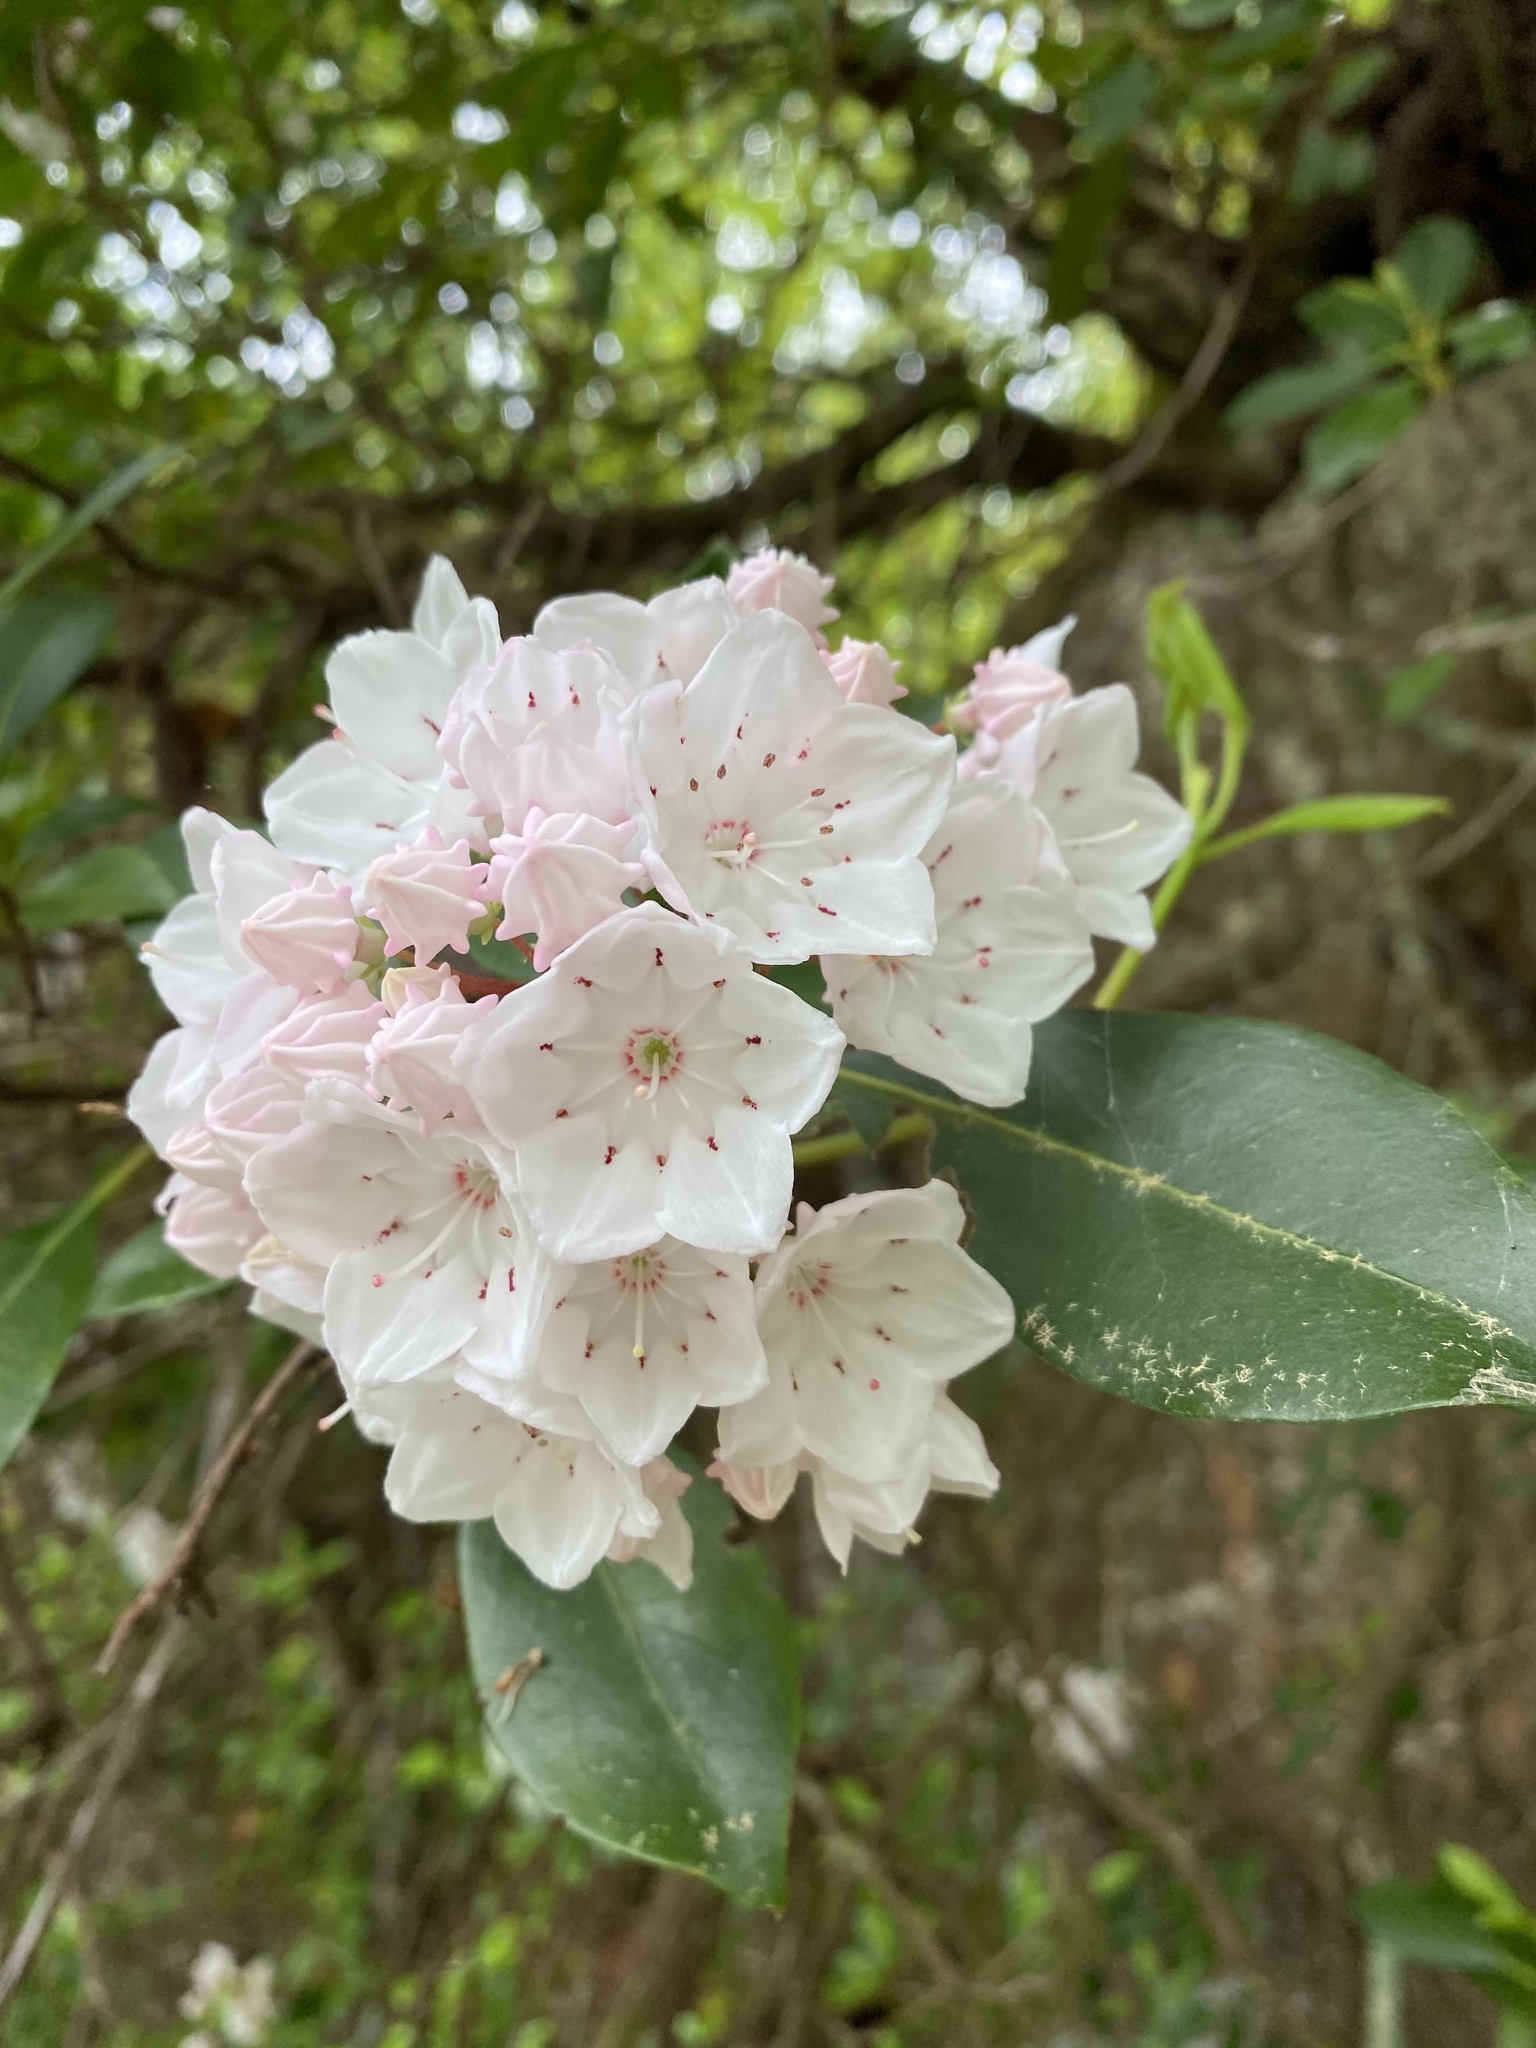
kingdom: Plantae
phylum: Tracheophyta
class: Magnoliopsida
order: Ericales
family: Ericaceae
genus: Kalmia
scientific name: Kalmia latifolia
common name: Mountain-laurel
